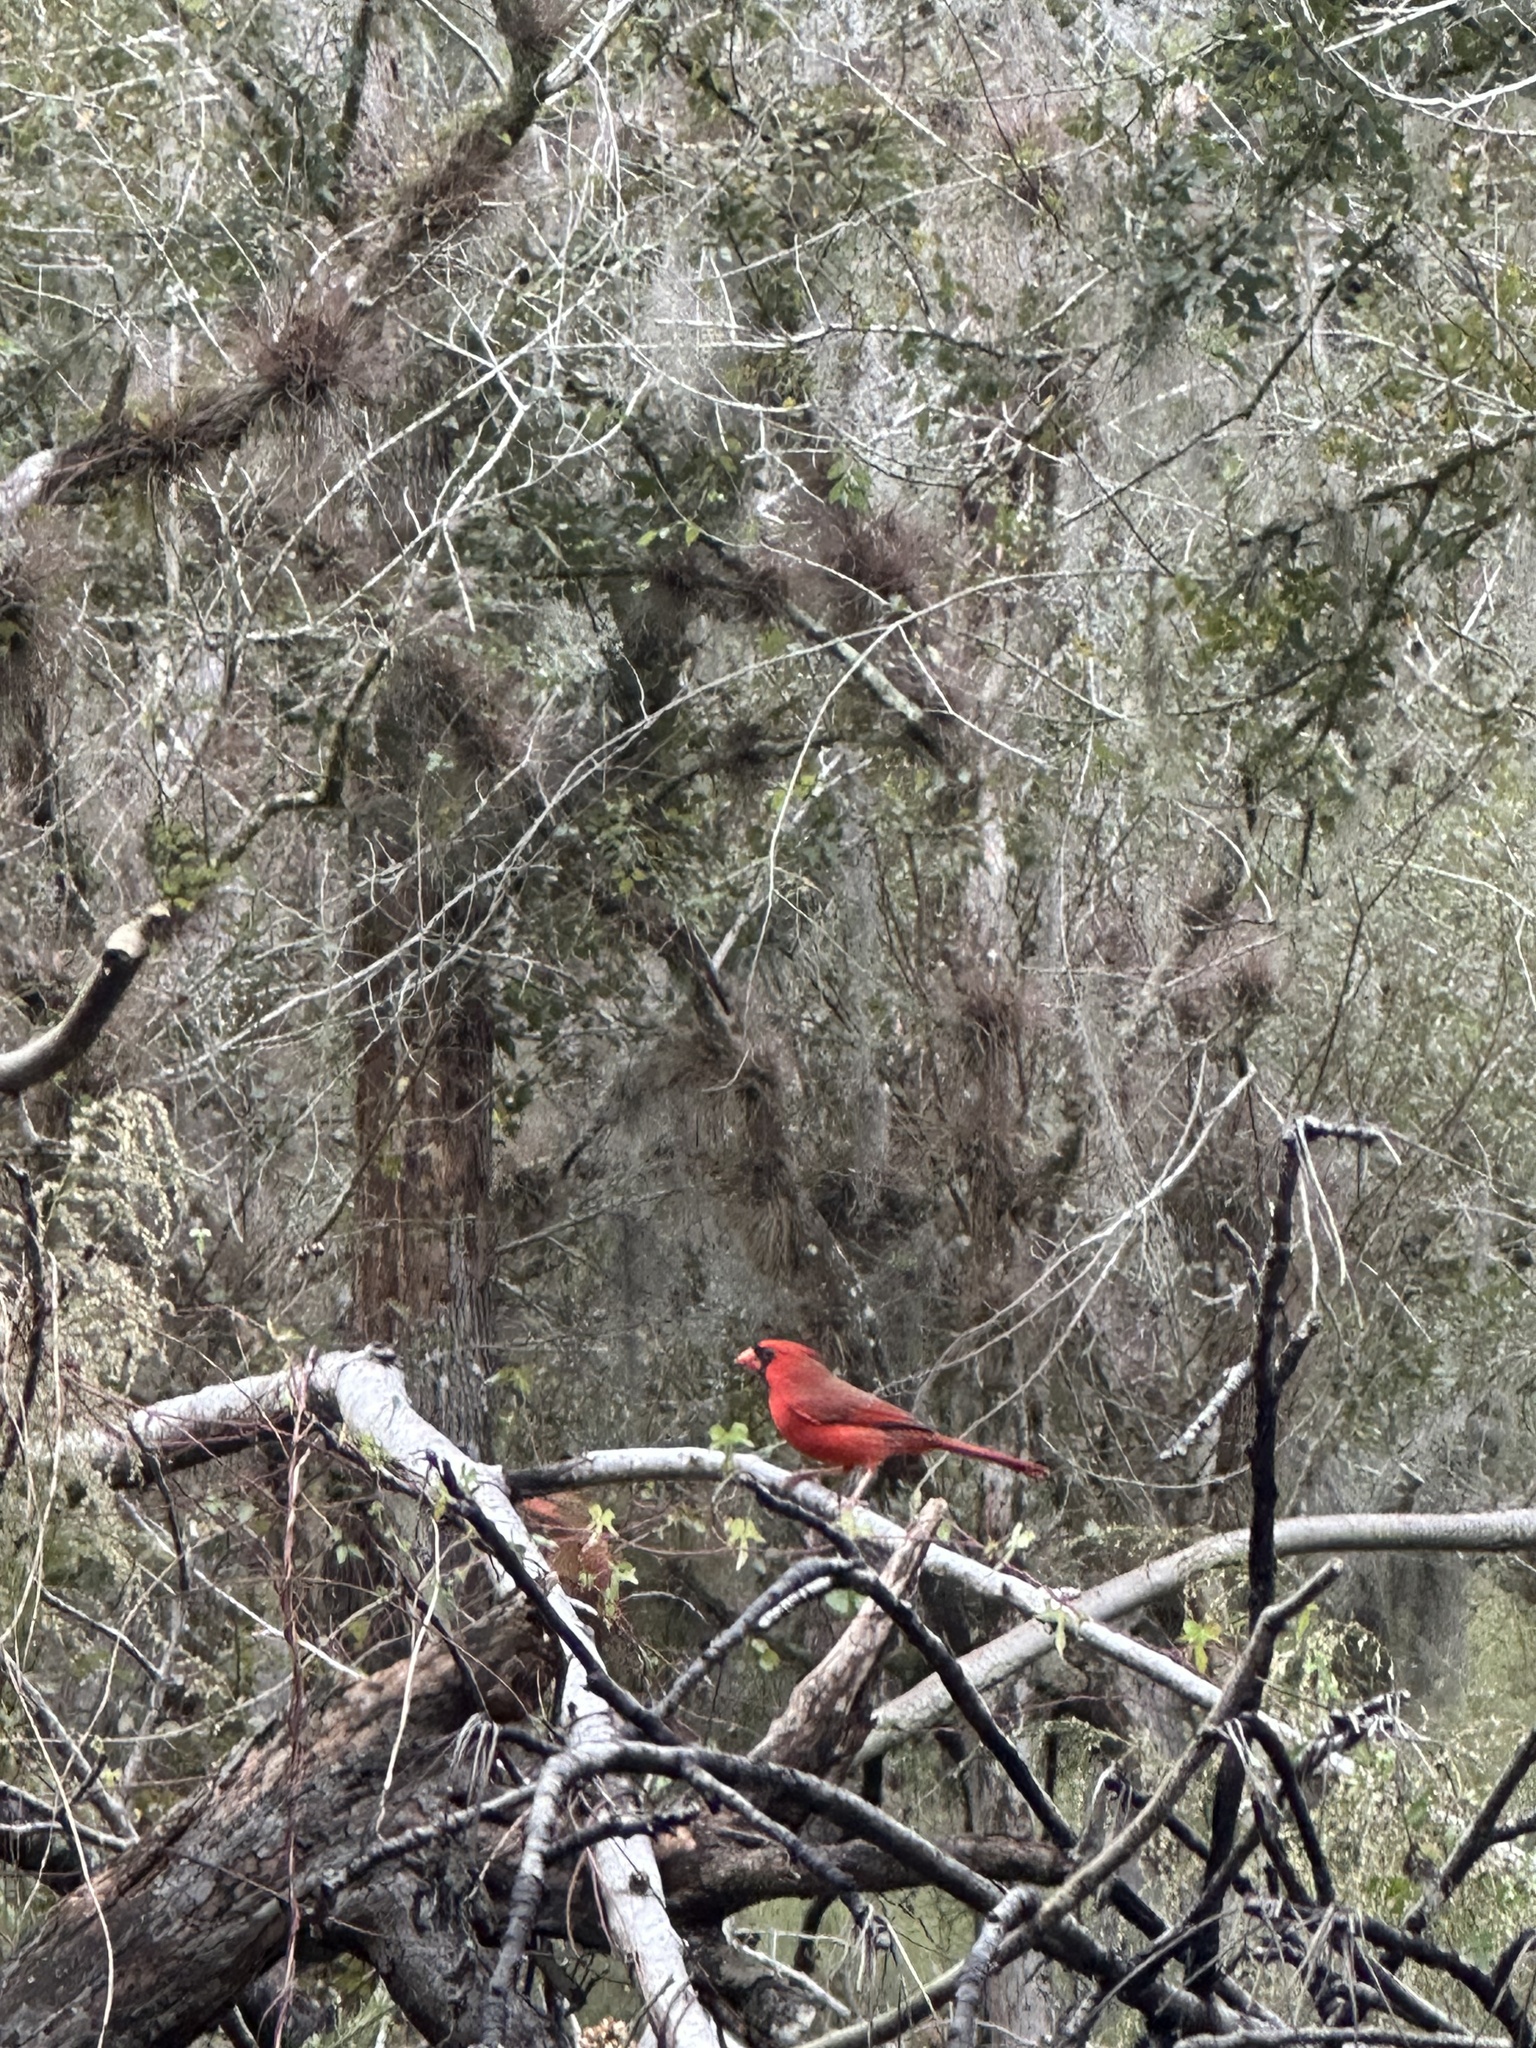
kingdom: Animalia
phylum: Chordata
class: Aves
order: Passeriformes
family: Cardinalidae
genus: Cardinalis
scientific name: Cardinalis cardinalis
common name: Northern cardinal
